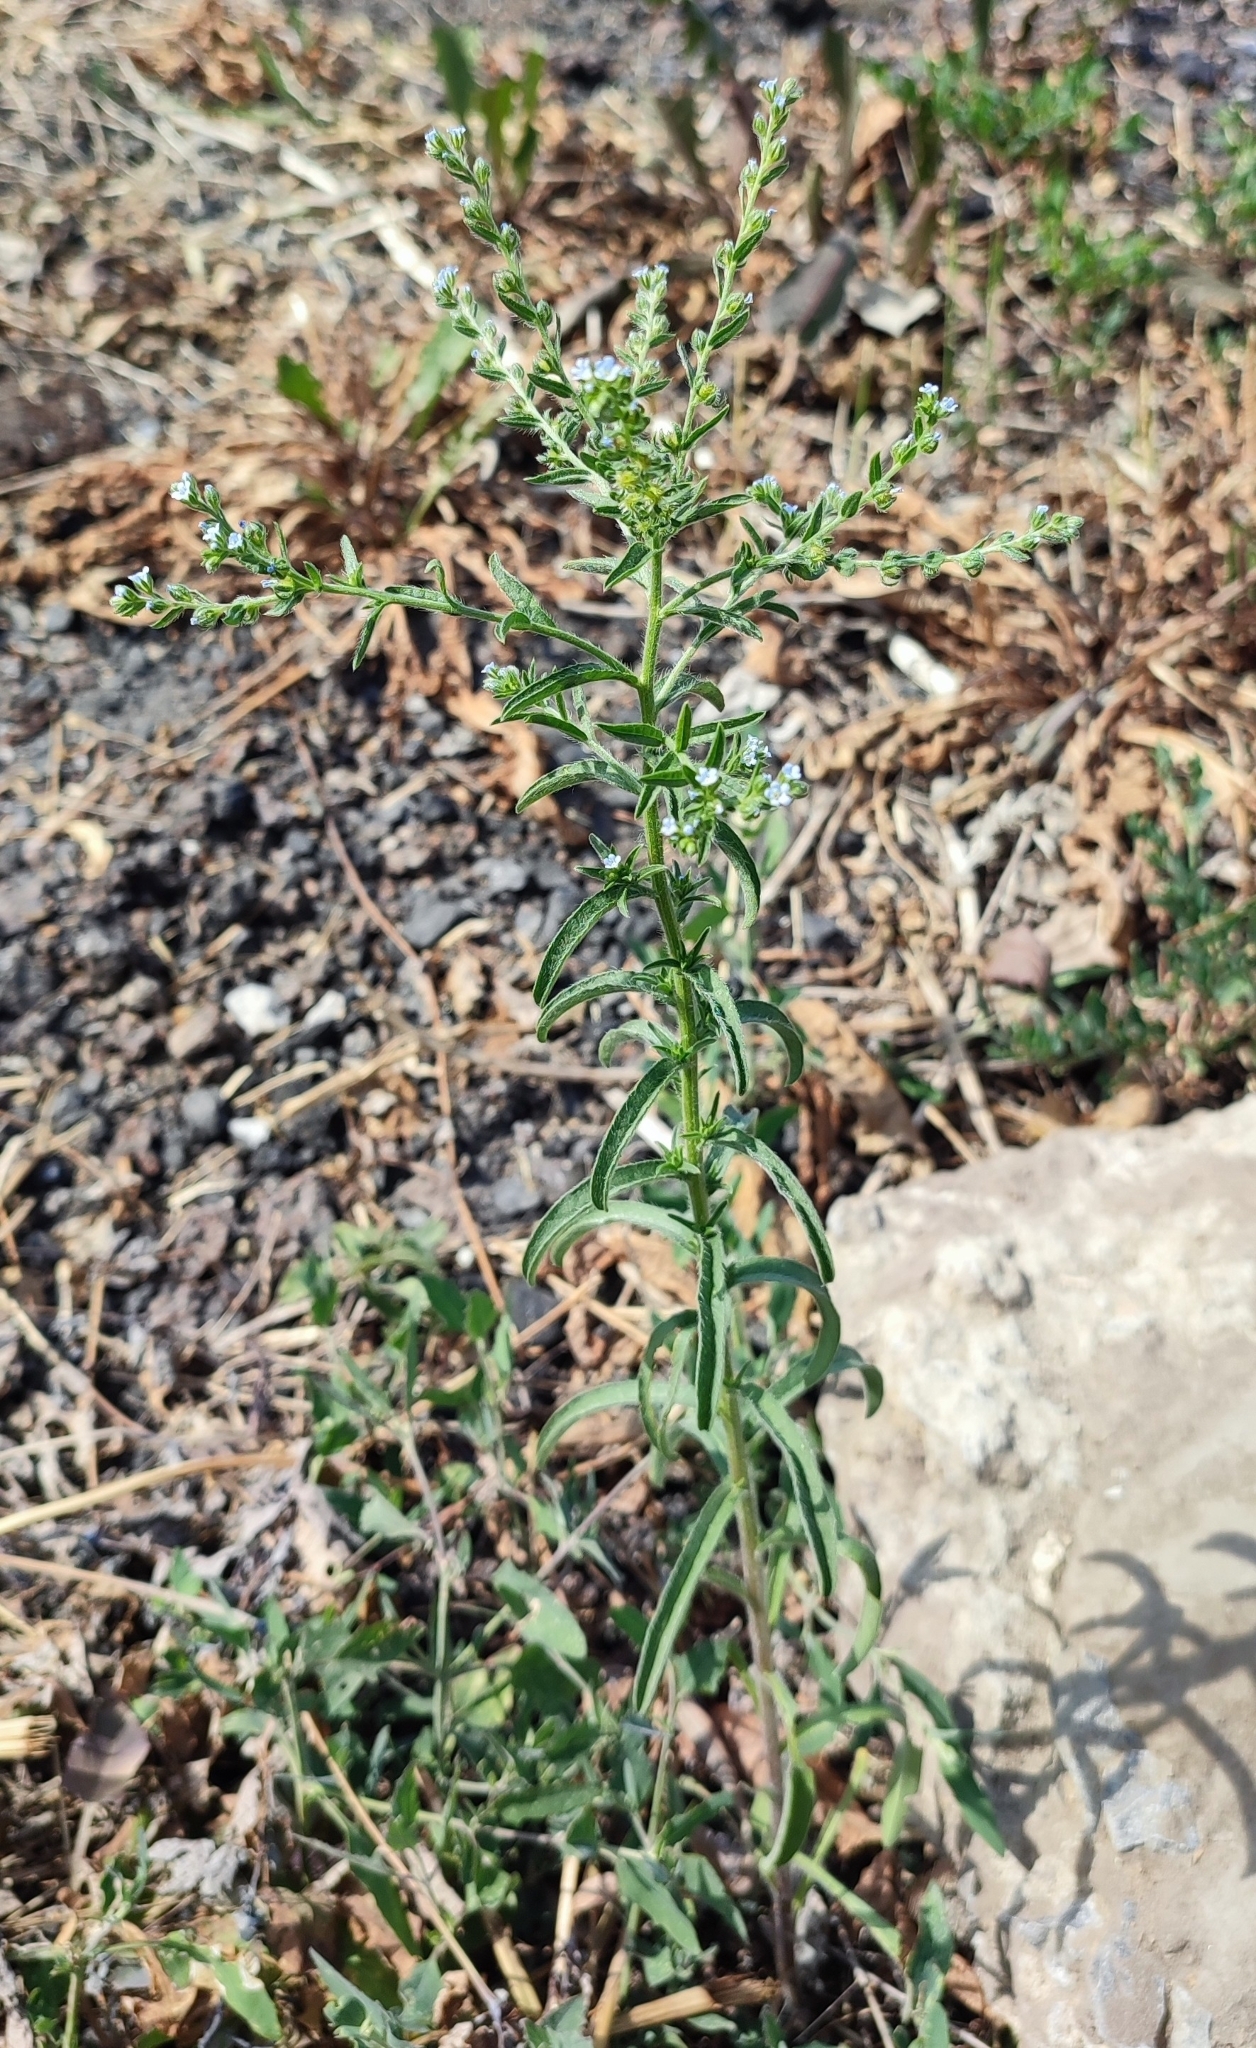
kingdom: Plantae
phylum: Tracheophyta
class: Magnoliopsida
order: Boraginales
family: Boraginaceae
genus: Lappula
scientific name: Lappula squarrosa
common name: European stickseed
